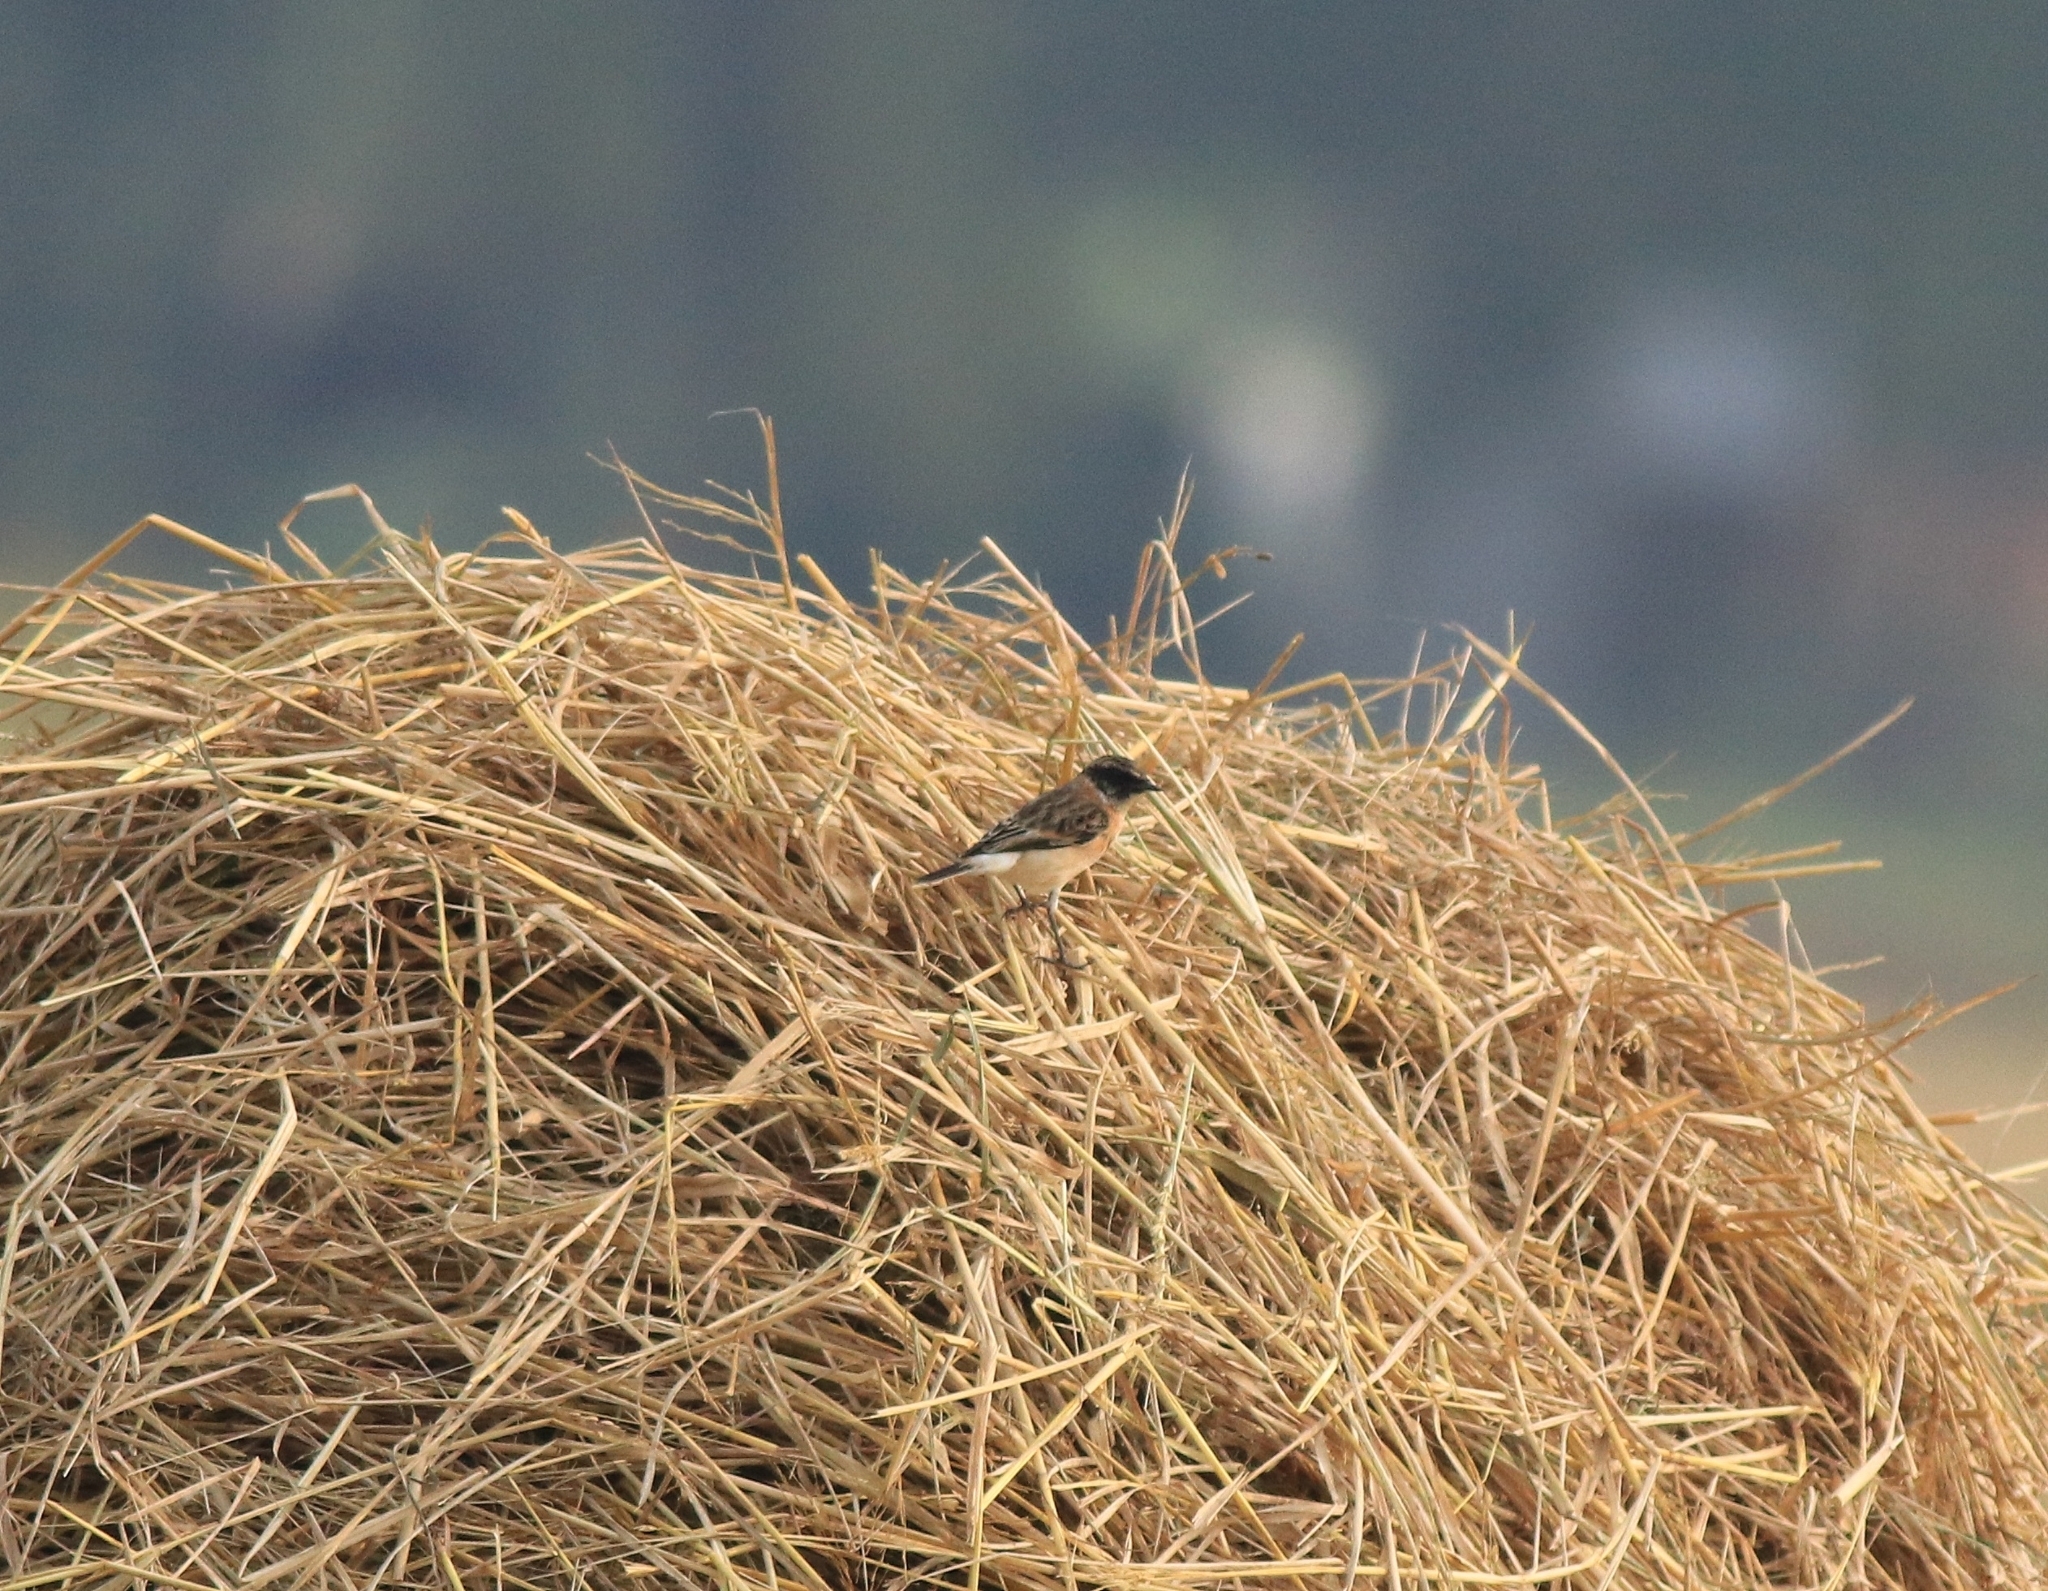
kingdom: Animalia
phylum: Chordata
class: Aves
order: Passeriformes
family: Muscicapidae
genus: Saxicola
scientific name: Saxicola maurus
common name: Siberian stonechat
